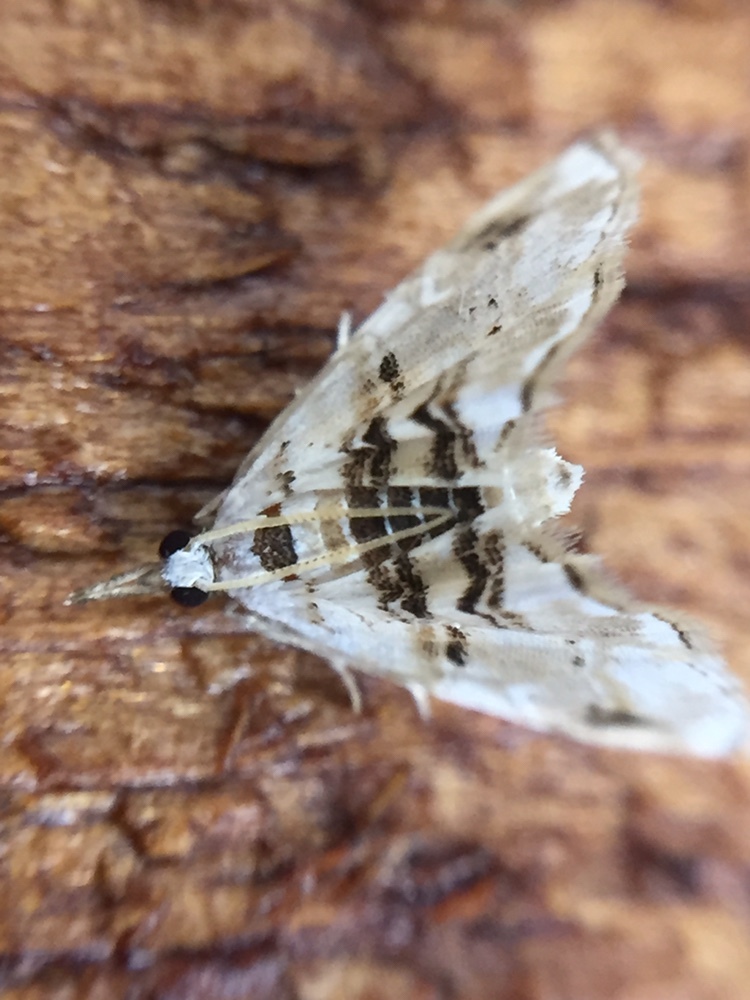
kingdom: Animalia
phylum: Arthropoda
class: Insecta
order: Lepidoptera
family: Crambidae
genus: Trichophysetis
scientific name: Trichophysetis
